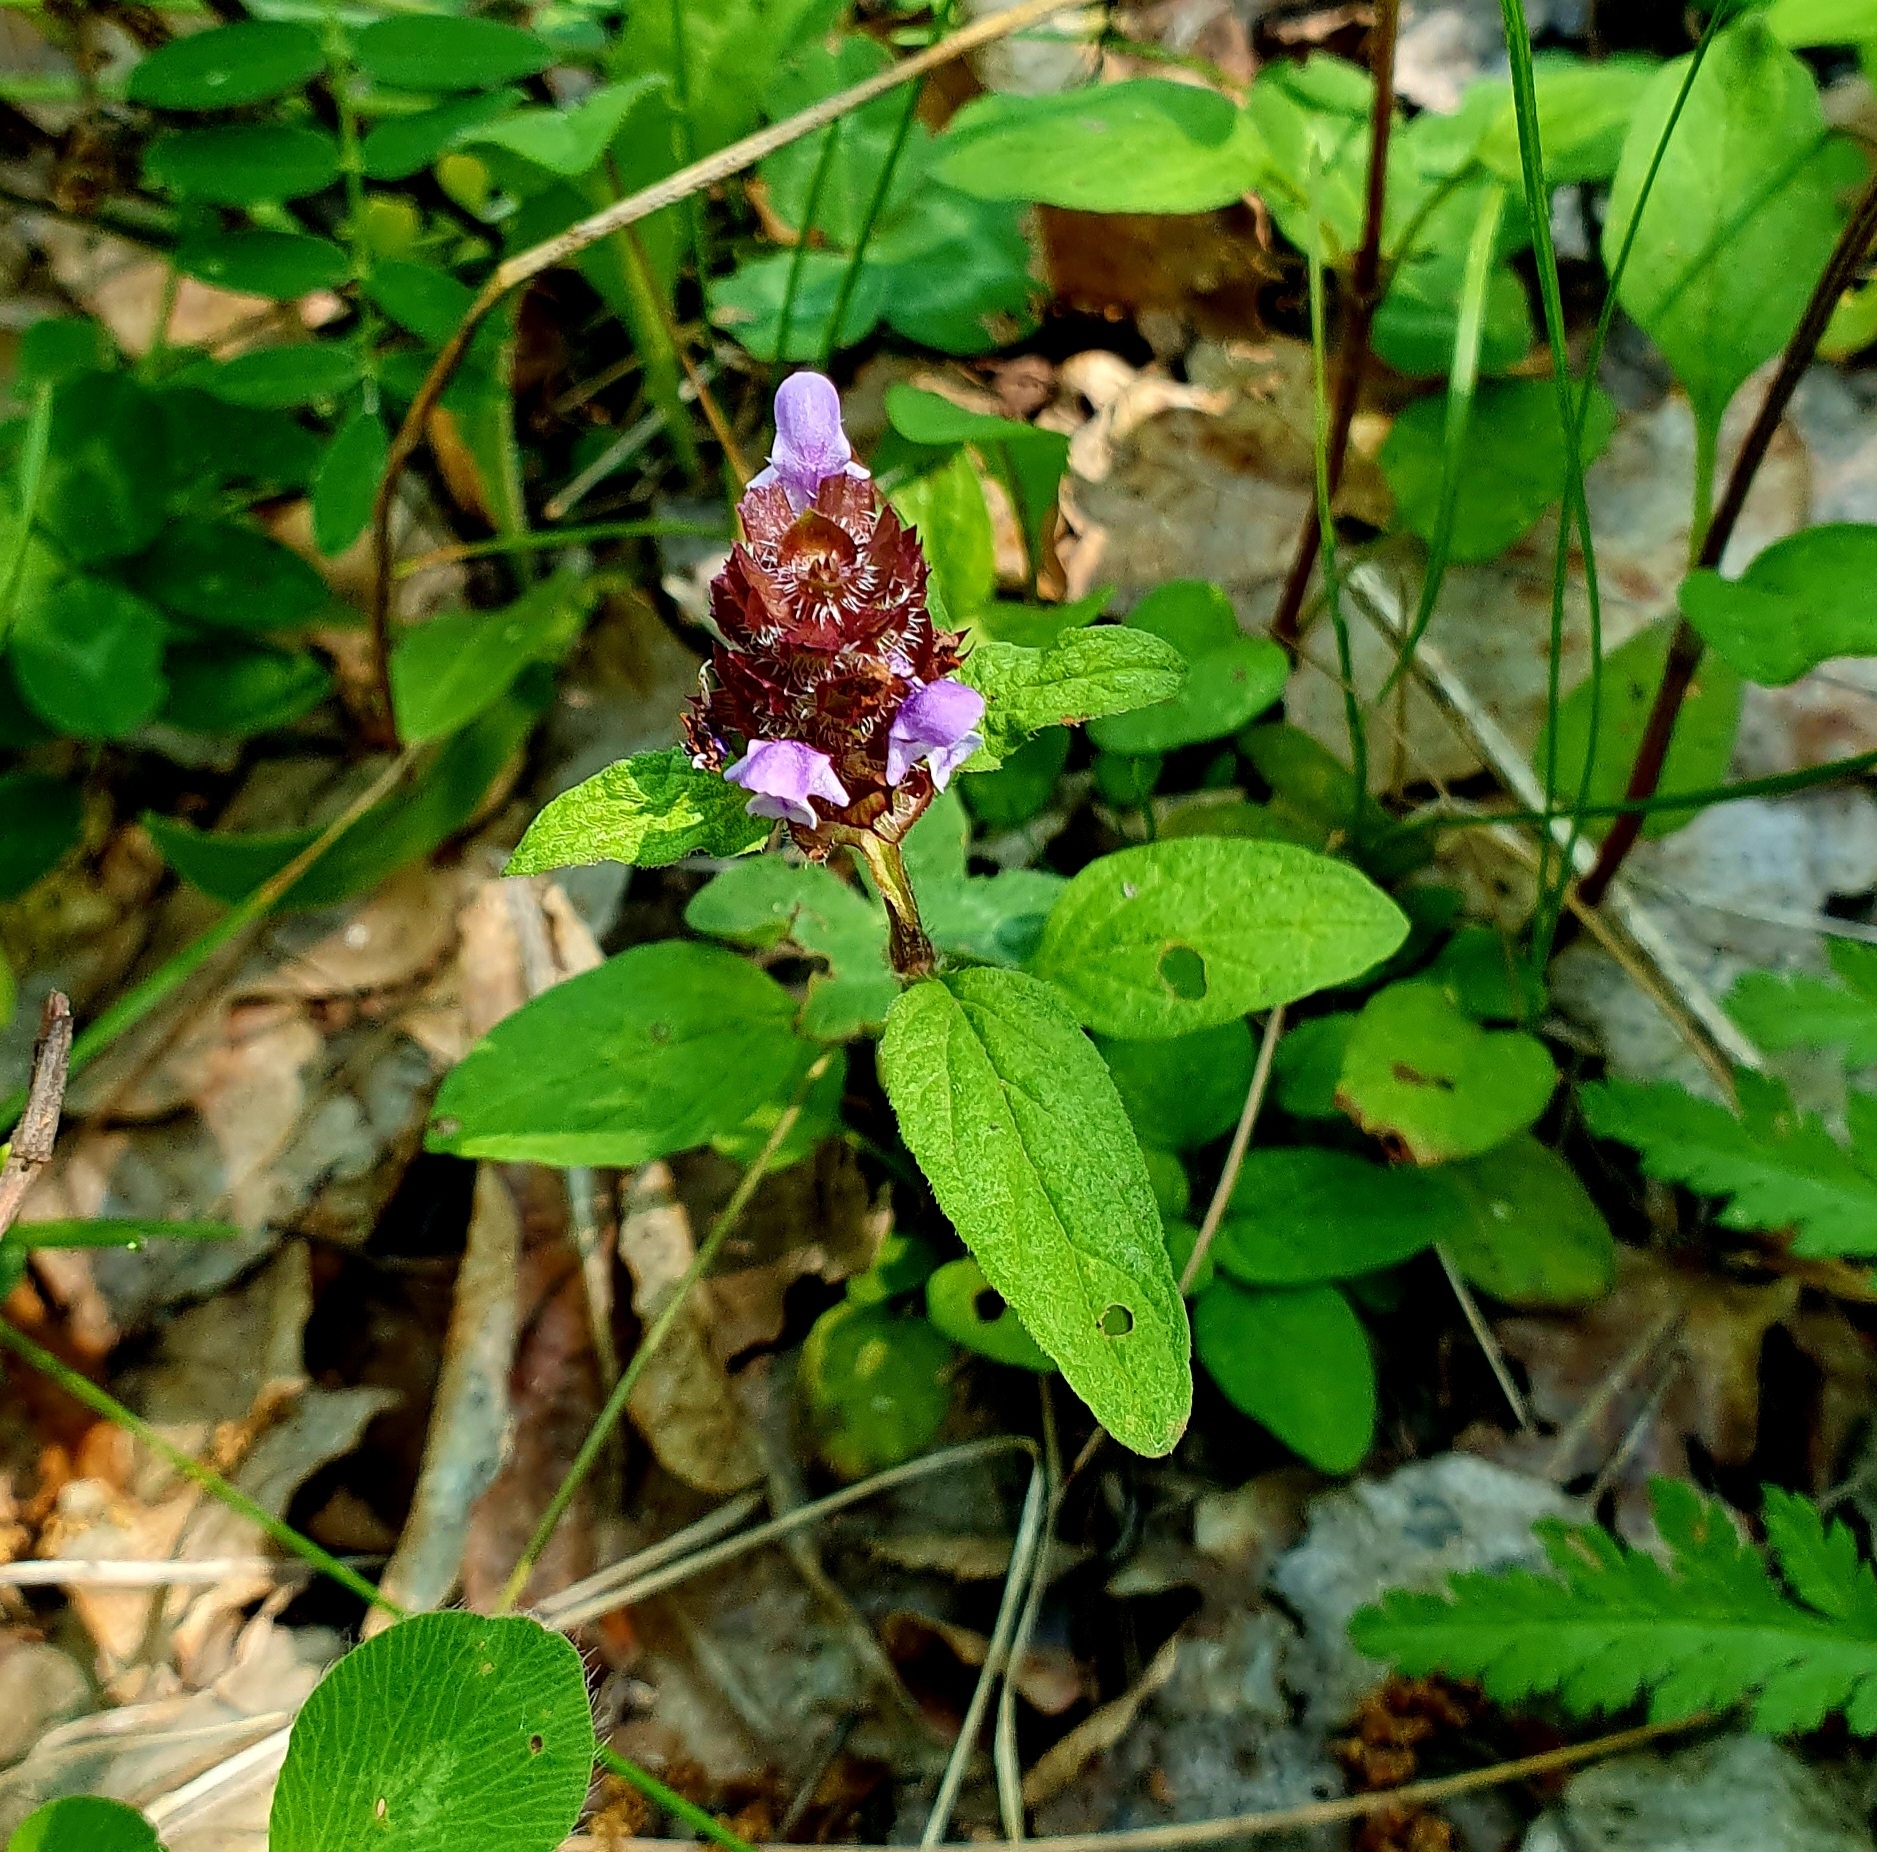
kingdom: Plantae
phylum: Tracheophyta
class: Magnoliopsida
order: Lamiales
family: Lamiaceae
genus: Prunella
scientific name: Prunella vulgaris
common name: Heal-all
